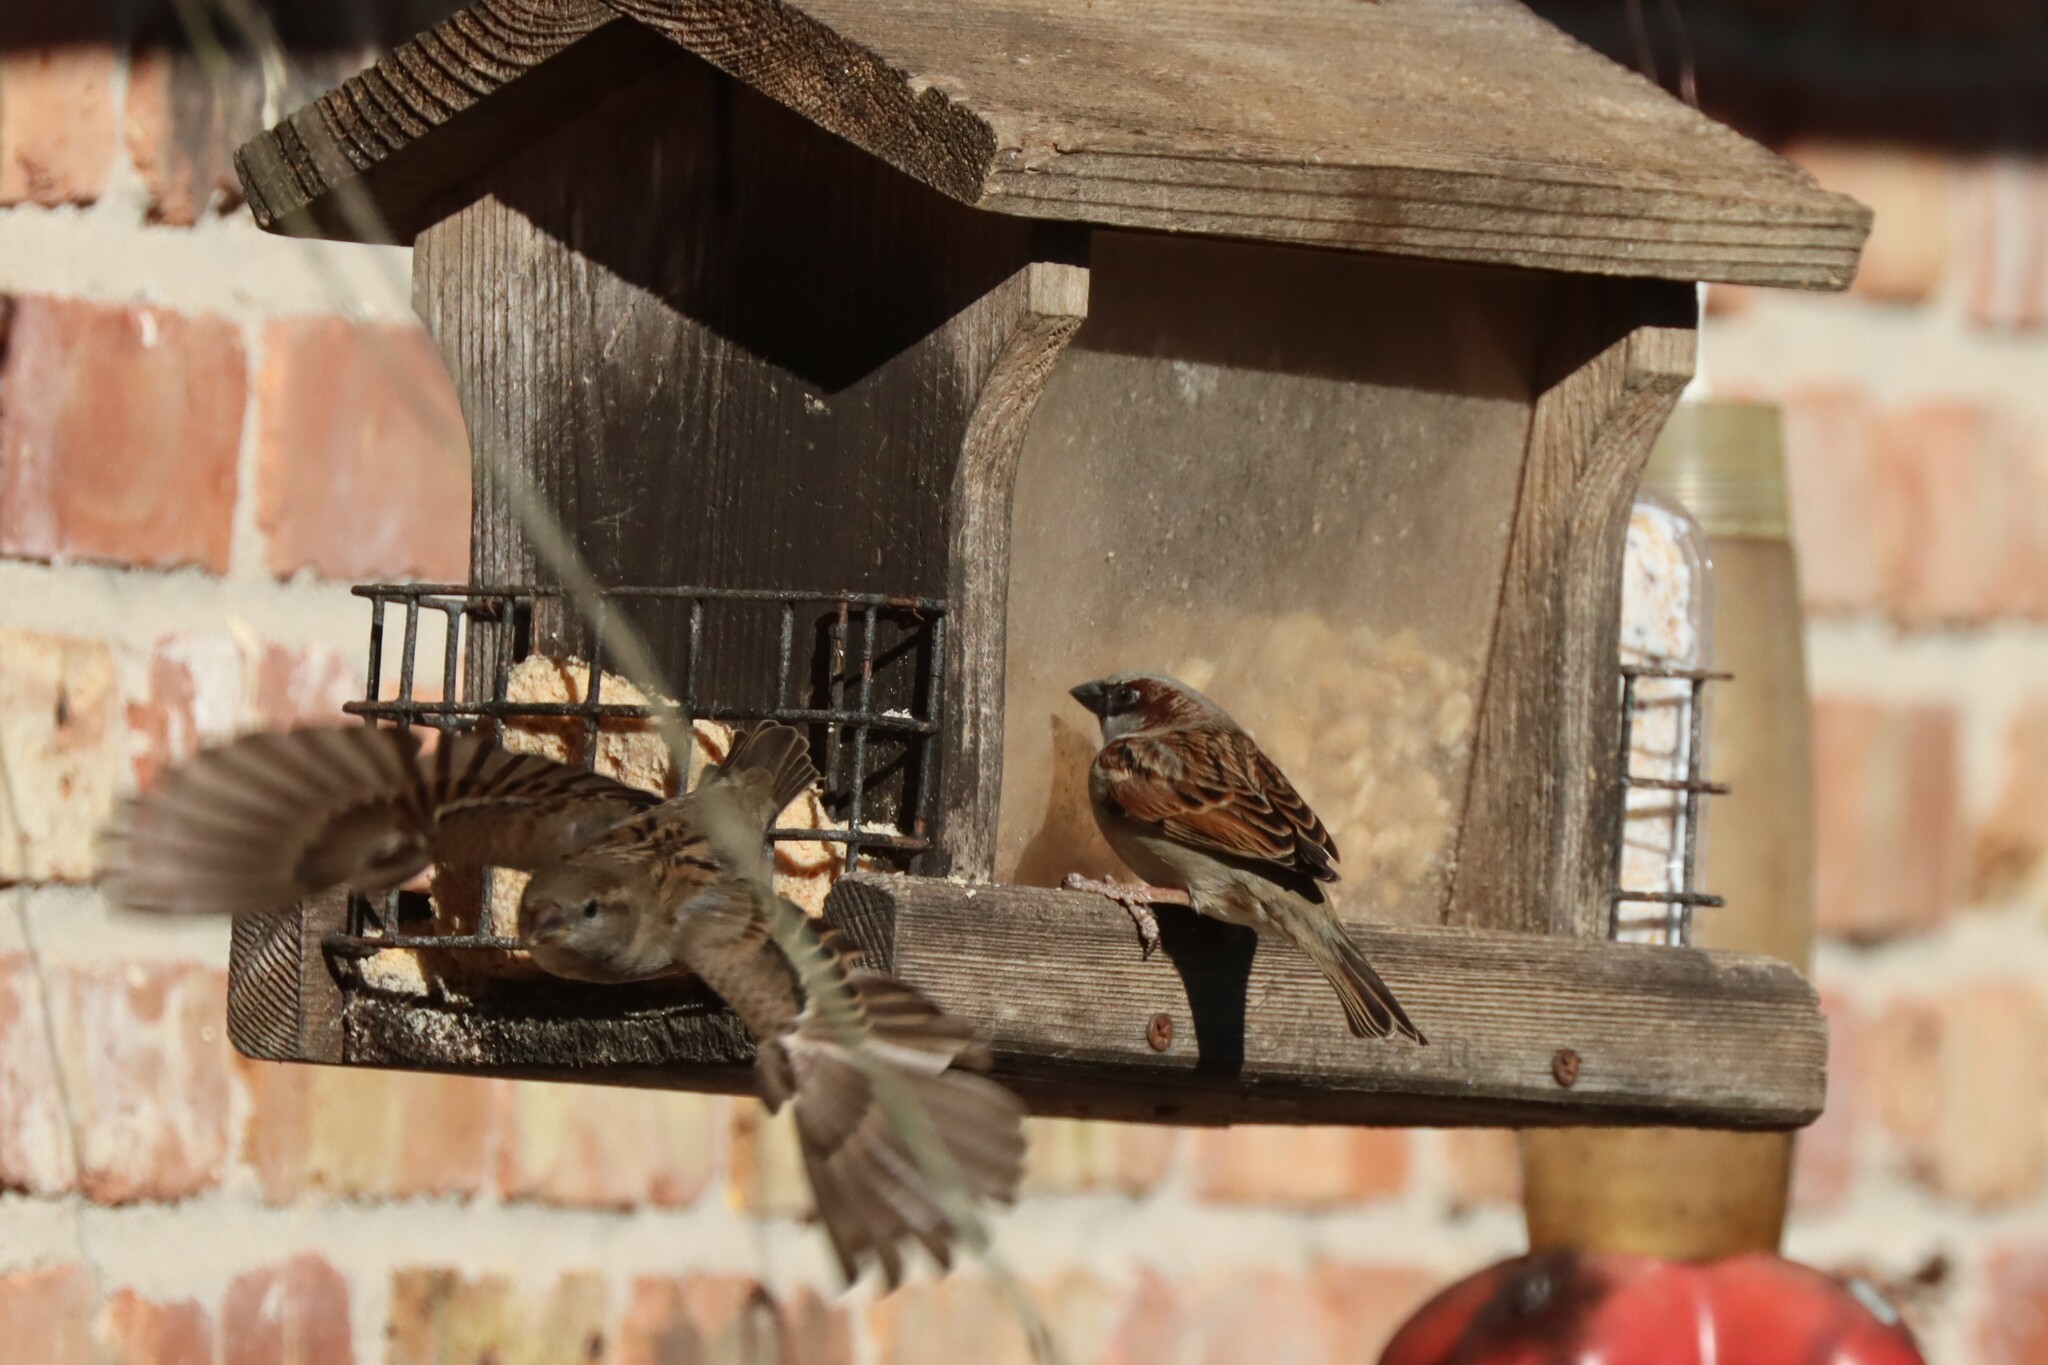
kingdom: Animalia
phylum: Chordata
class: Aves
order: Passeriformes
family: Passeridae
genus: Passer
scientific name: Passer domesticus
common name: House sparrow
